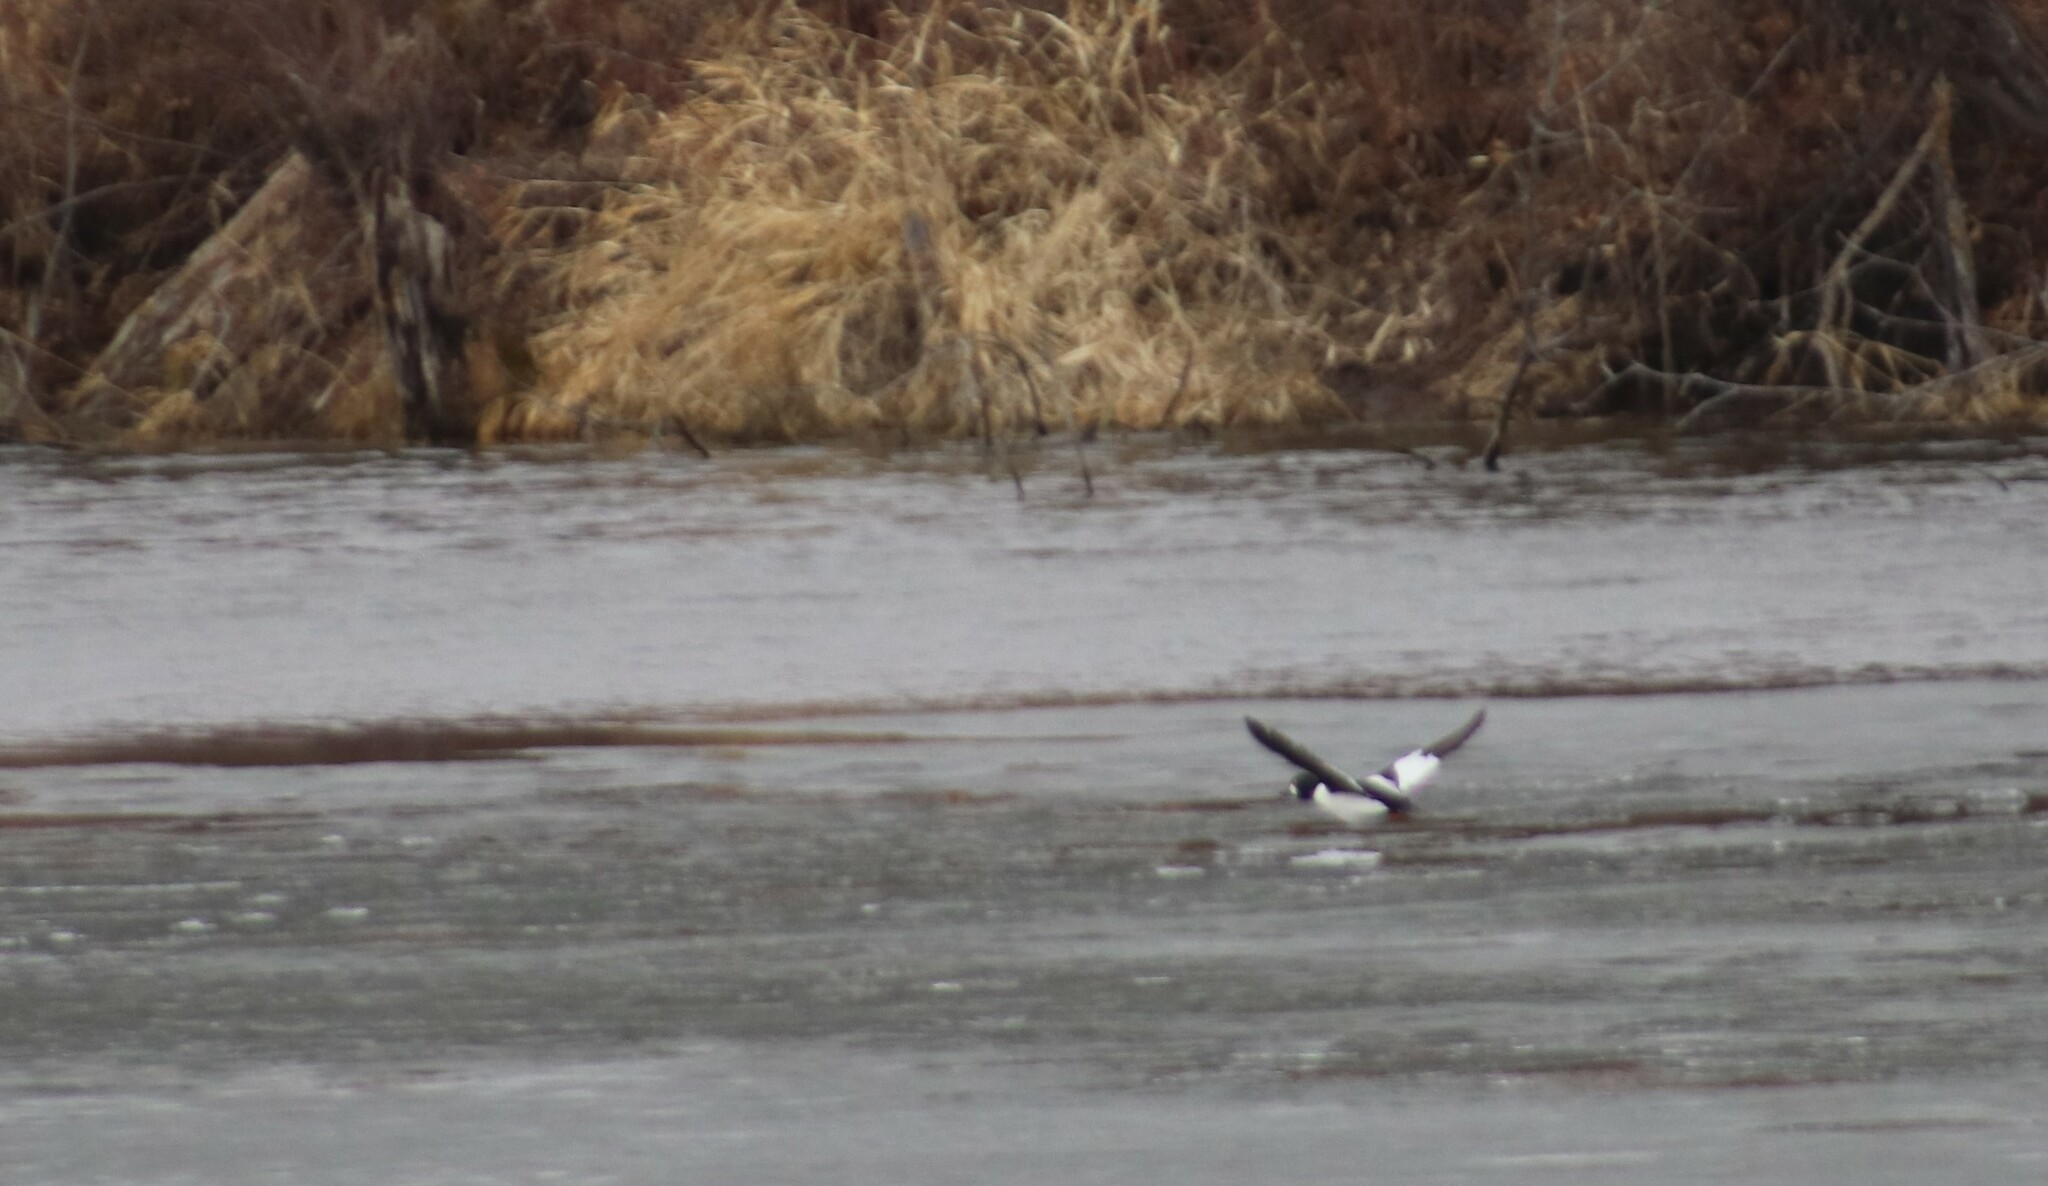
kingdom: Animalia
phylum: Chordata
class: Aves
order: Anseriformes
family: Anatidae
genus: Bucephala
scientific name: Bucephala clangula
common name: Common goldeneye
